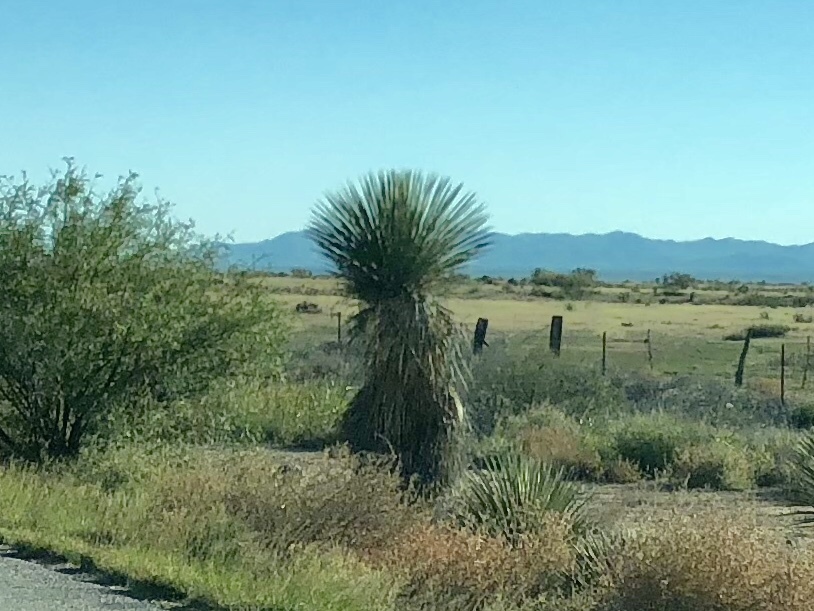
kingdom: Plantae
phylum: Tracheophyta
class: Liliopsida
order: Asparagales
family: Asparagaceae
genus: Yucca
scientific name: Yucca elata
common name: Palmella
